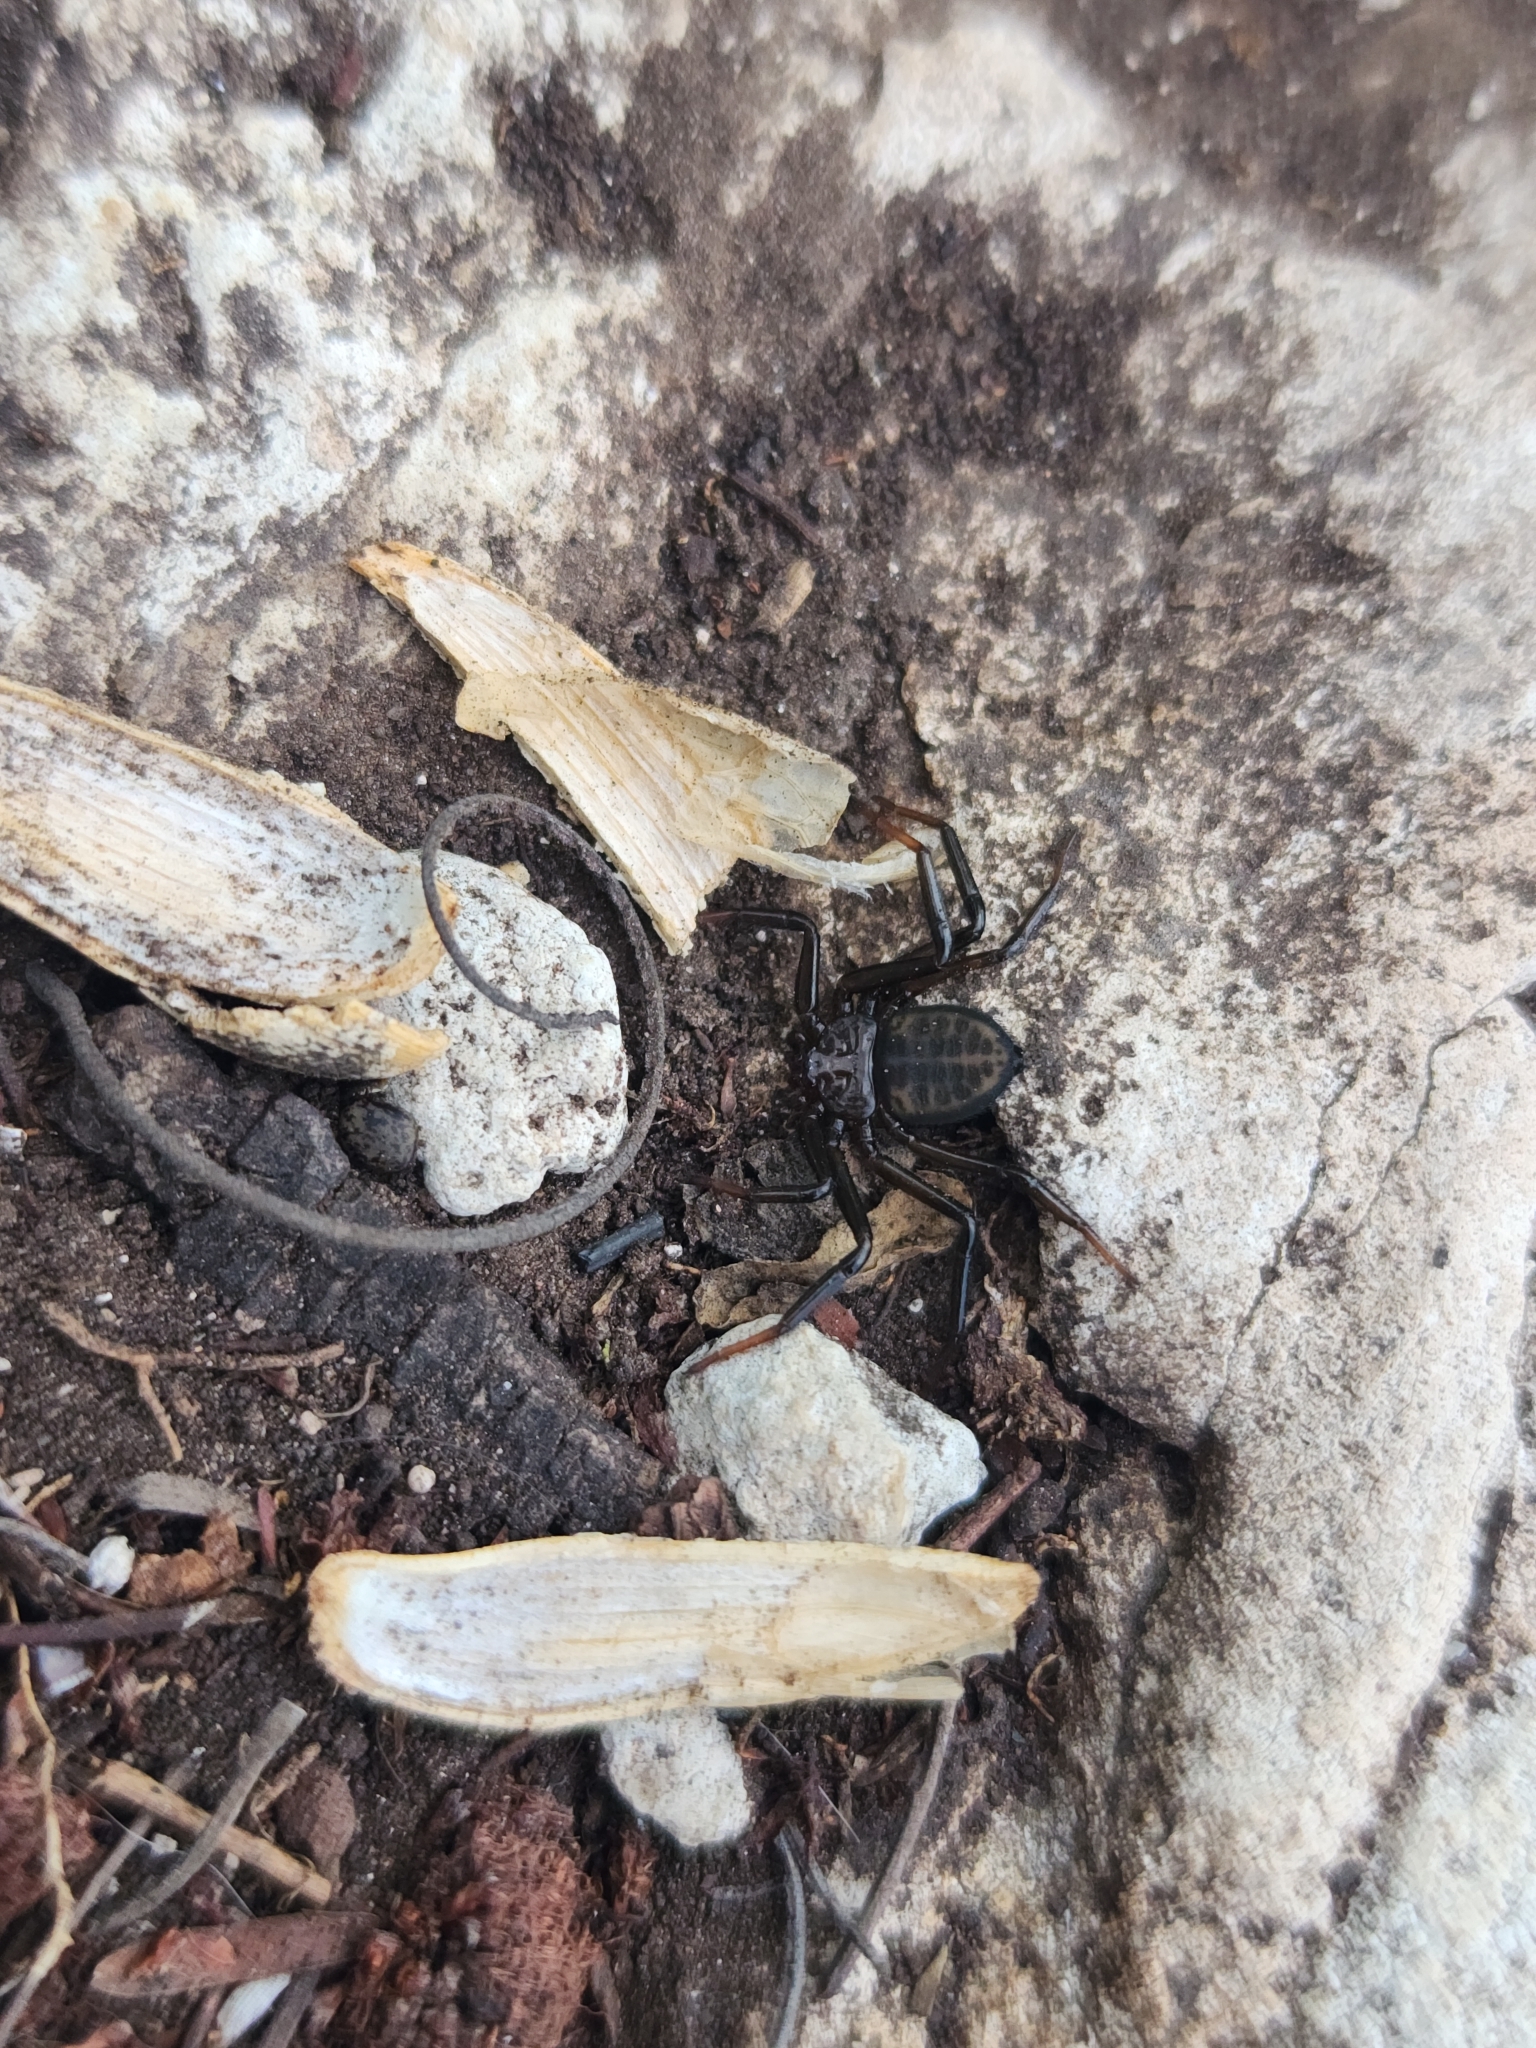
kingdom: Animalia
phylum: Arthropoda
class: Arachnida
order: Araneae
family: Trochanteriidae
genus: Vectius
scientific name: Vectius niger
